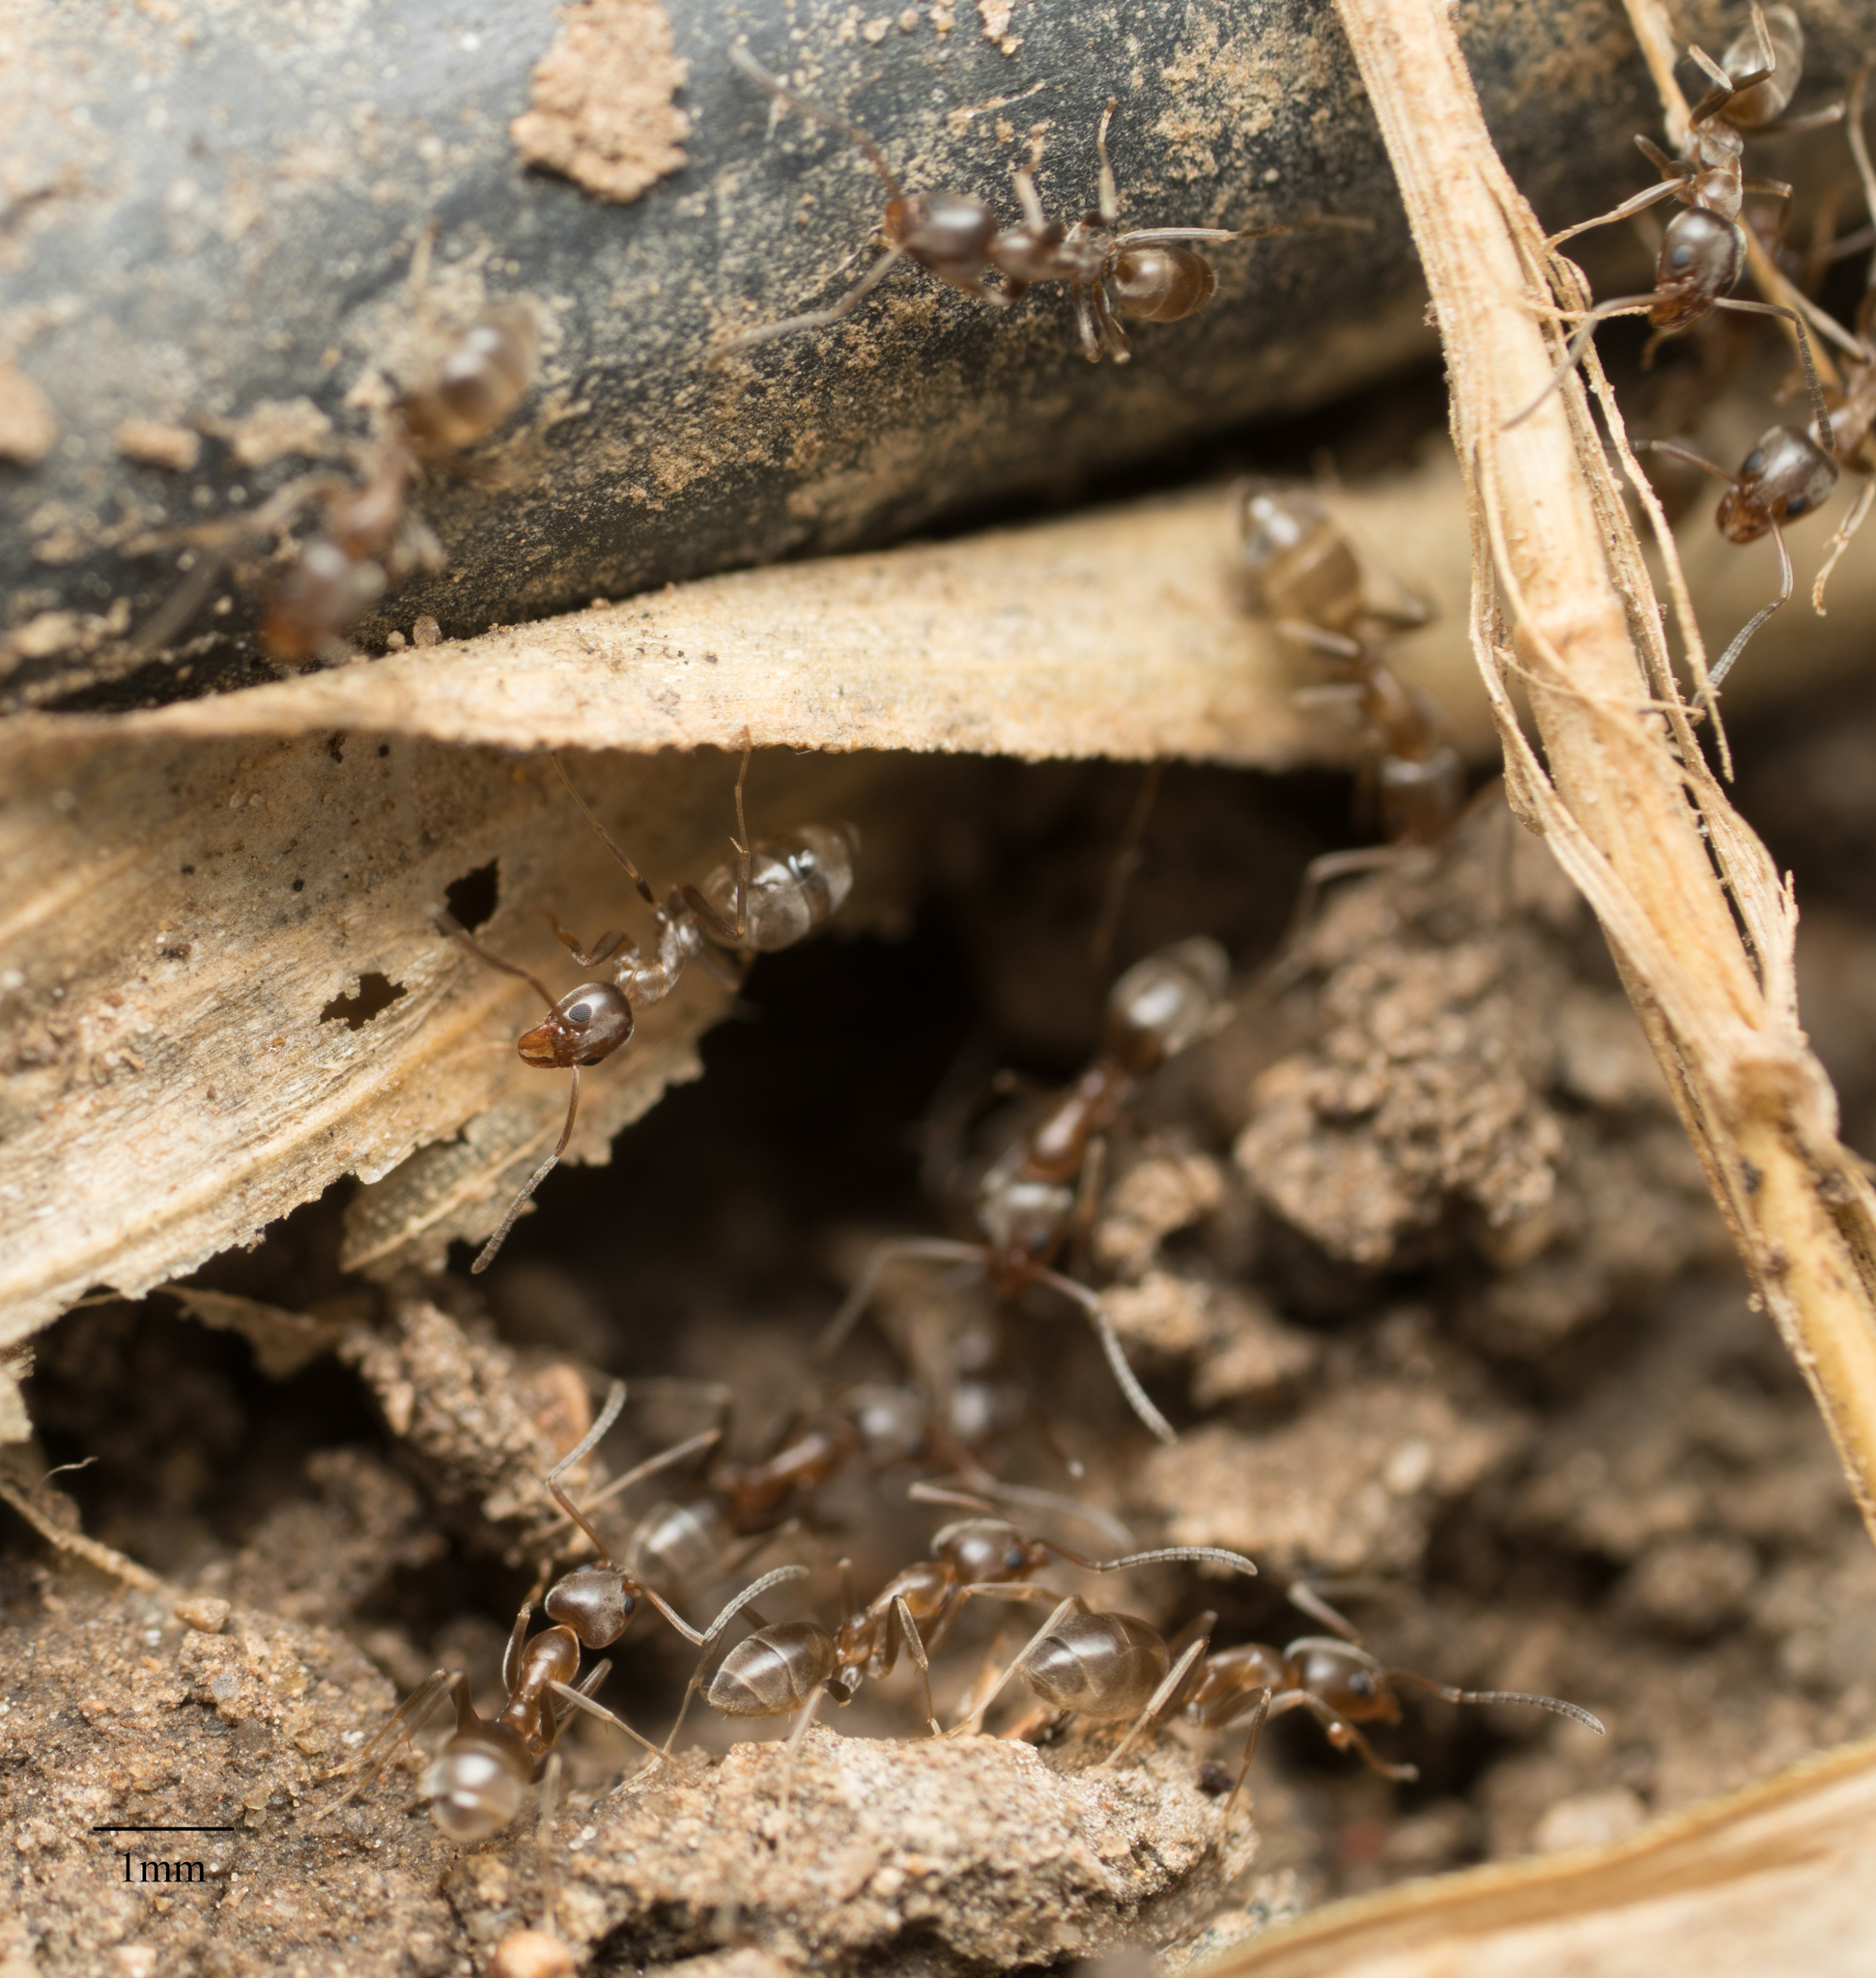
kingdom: Animalia
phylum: Arthropoda
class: Insecta
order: Hymenoptera
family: Formicidae
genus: Linepithema
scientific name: Linepithema humile
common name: Argentine ant
